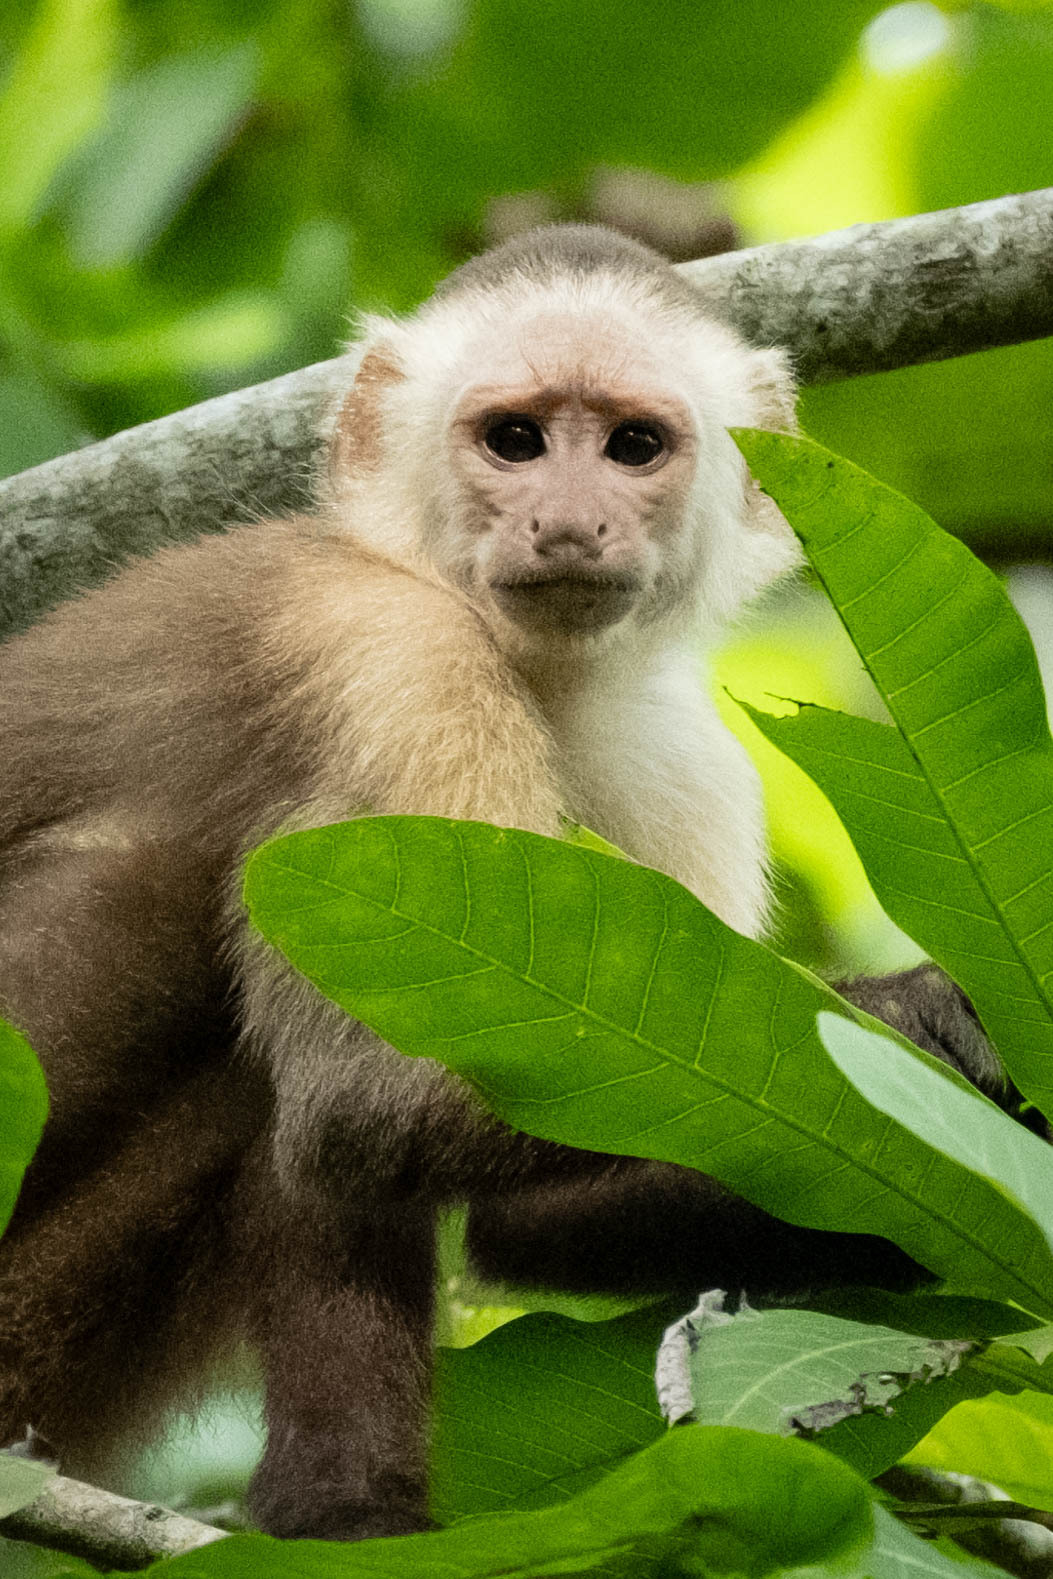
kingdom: Animalia
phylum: Chordata
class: Mammalia
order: Primates
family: Cebidae
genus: Cebus
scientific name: Cebus malitiosus
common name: Santa marta white-fronted capuchin
